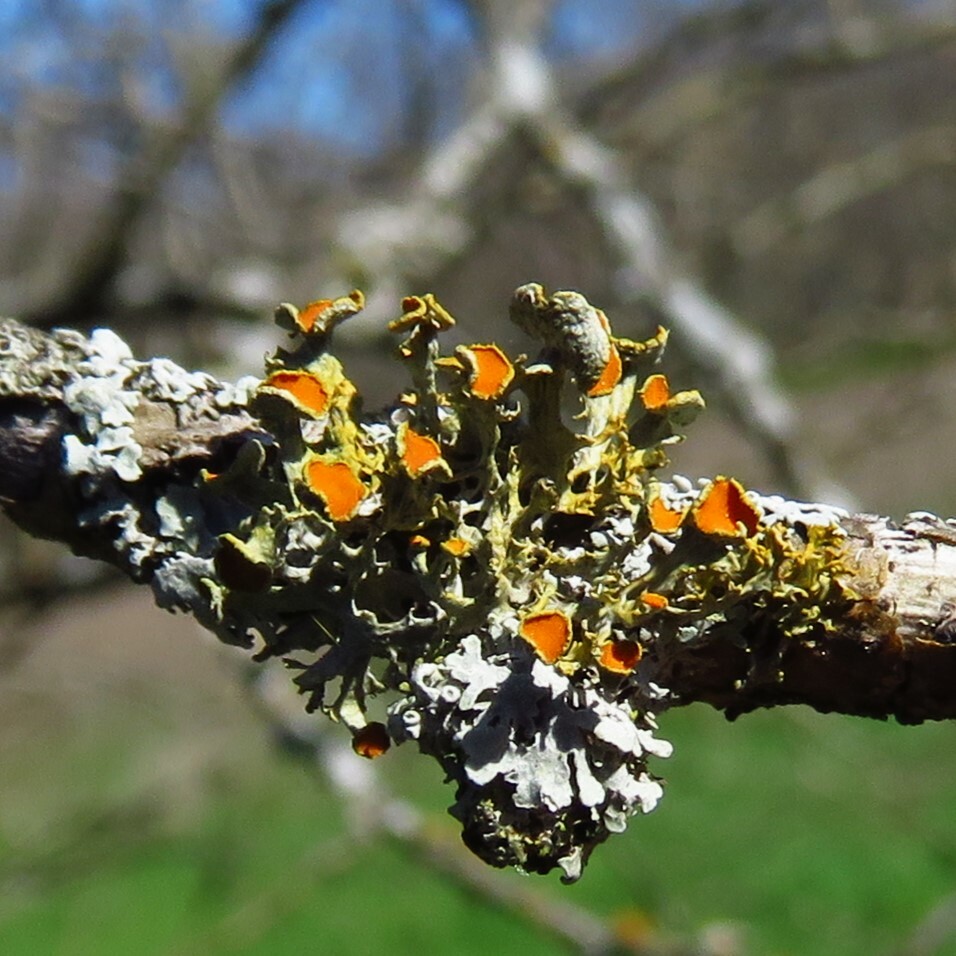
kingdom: Fungi
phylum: Ascomycota
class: Lecanoromycetes
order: Teloschistales
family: Teloschistaceae
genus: Niorma
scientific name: Niorma chrysophthalma
